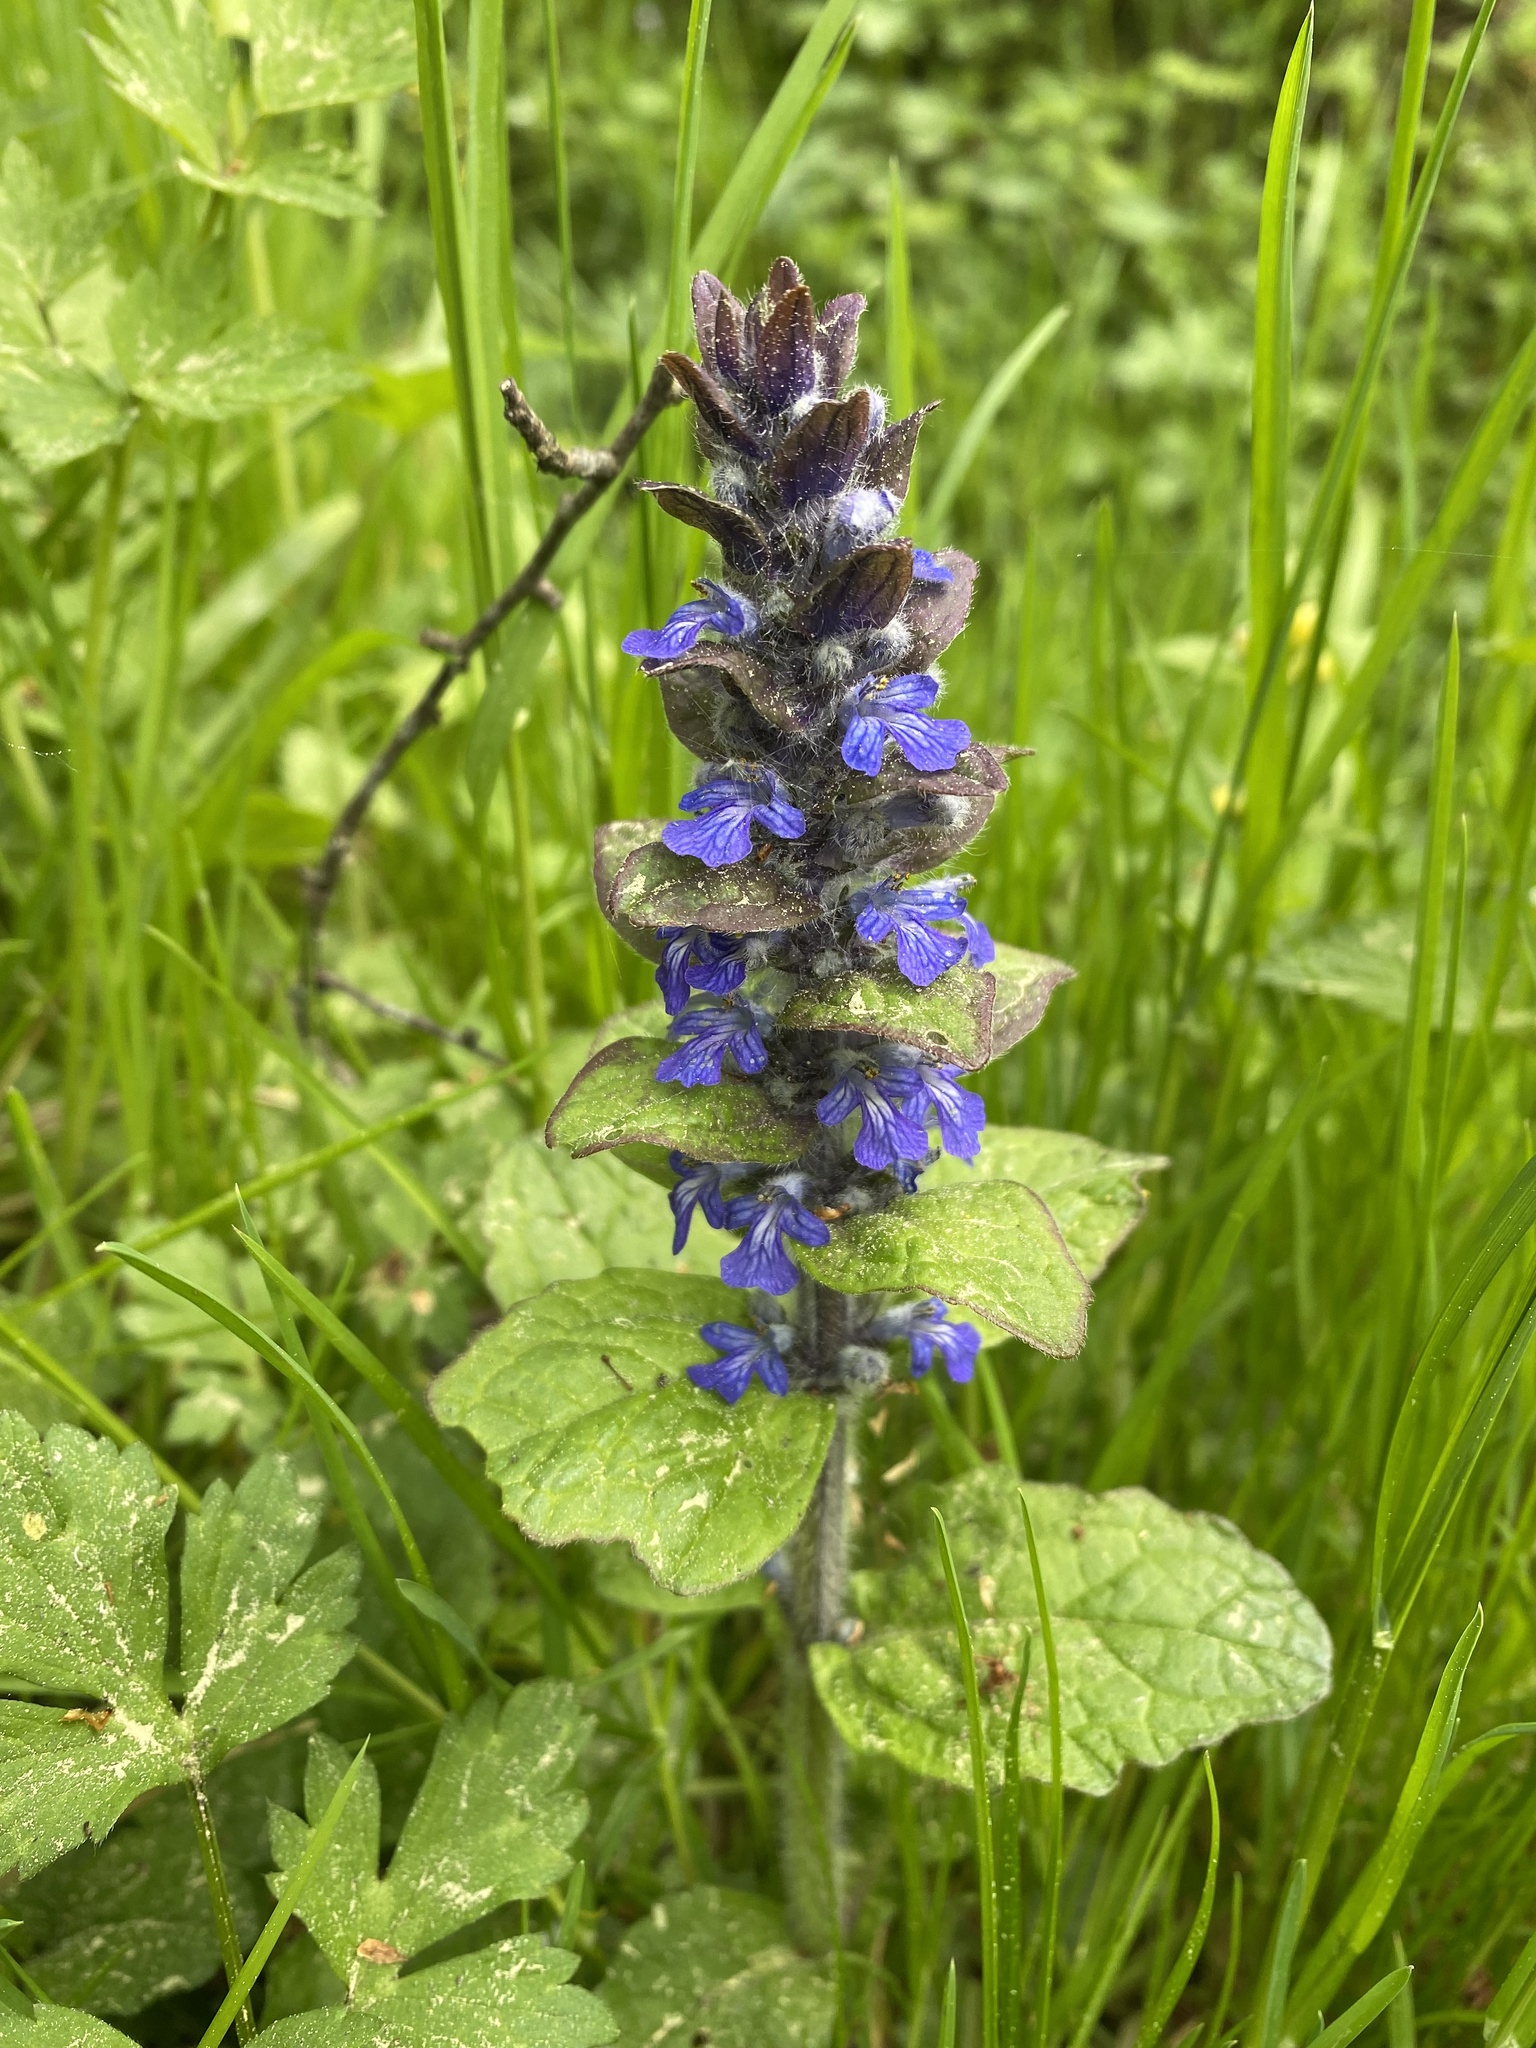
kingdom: Plantae
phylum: Tracheophyta
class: Magnoliopsida
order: Lamiales
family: Lamiaceae
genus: Ajuga
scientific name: Ajuga reptans
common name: Bugle
